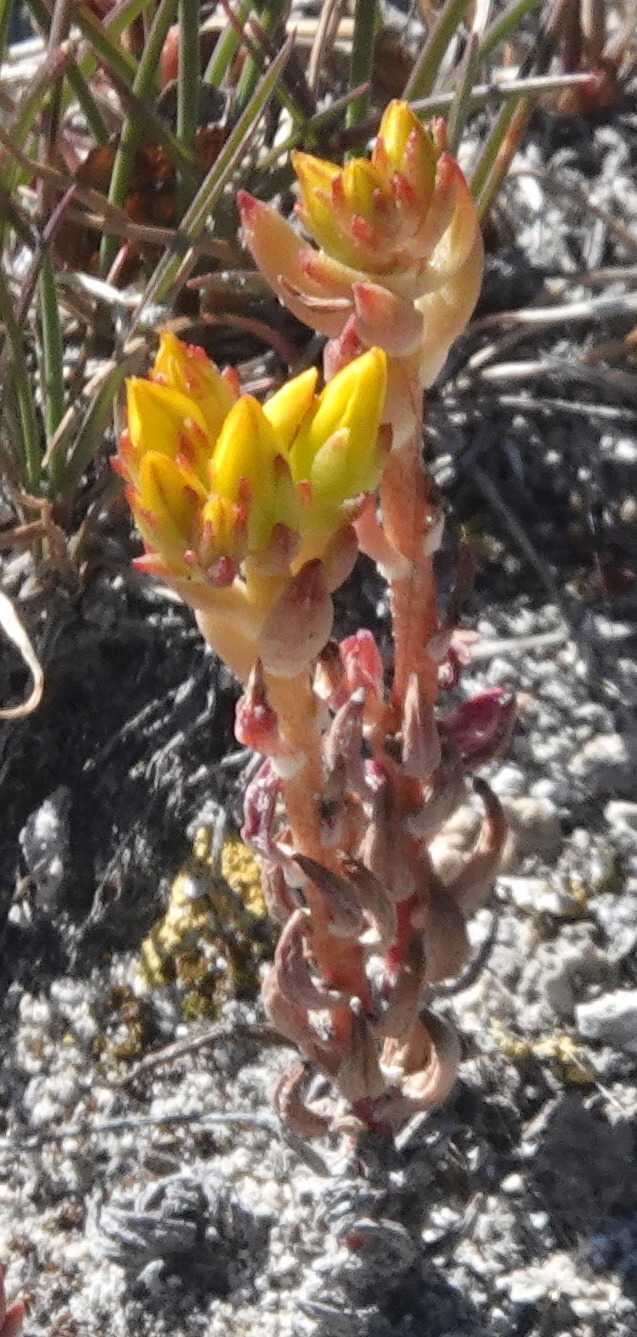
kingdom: Plantae
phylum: Tracheophyta
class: Magnoliopsida
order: Saxifragales
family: Crassulaceae
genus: Sedum
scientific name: Sedum lanceolatum
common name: Common stonecrop
